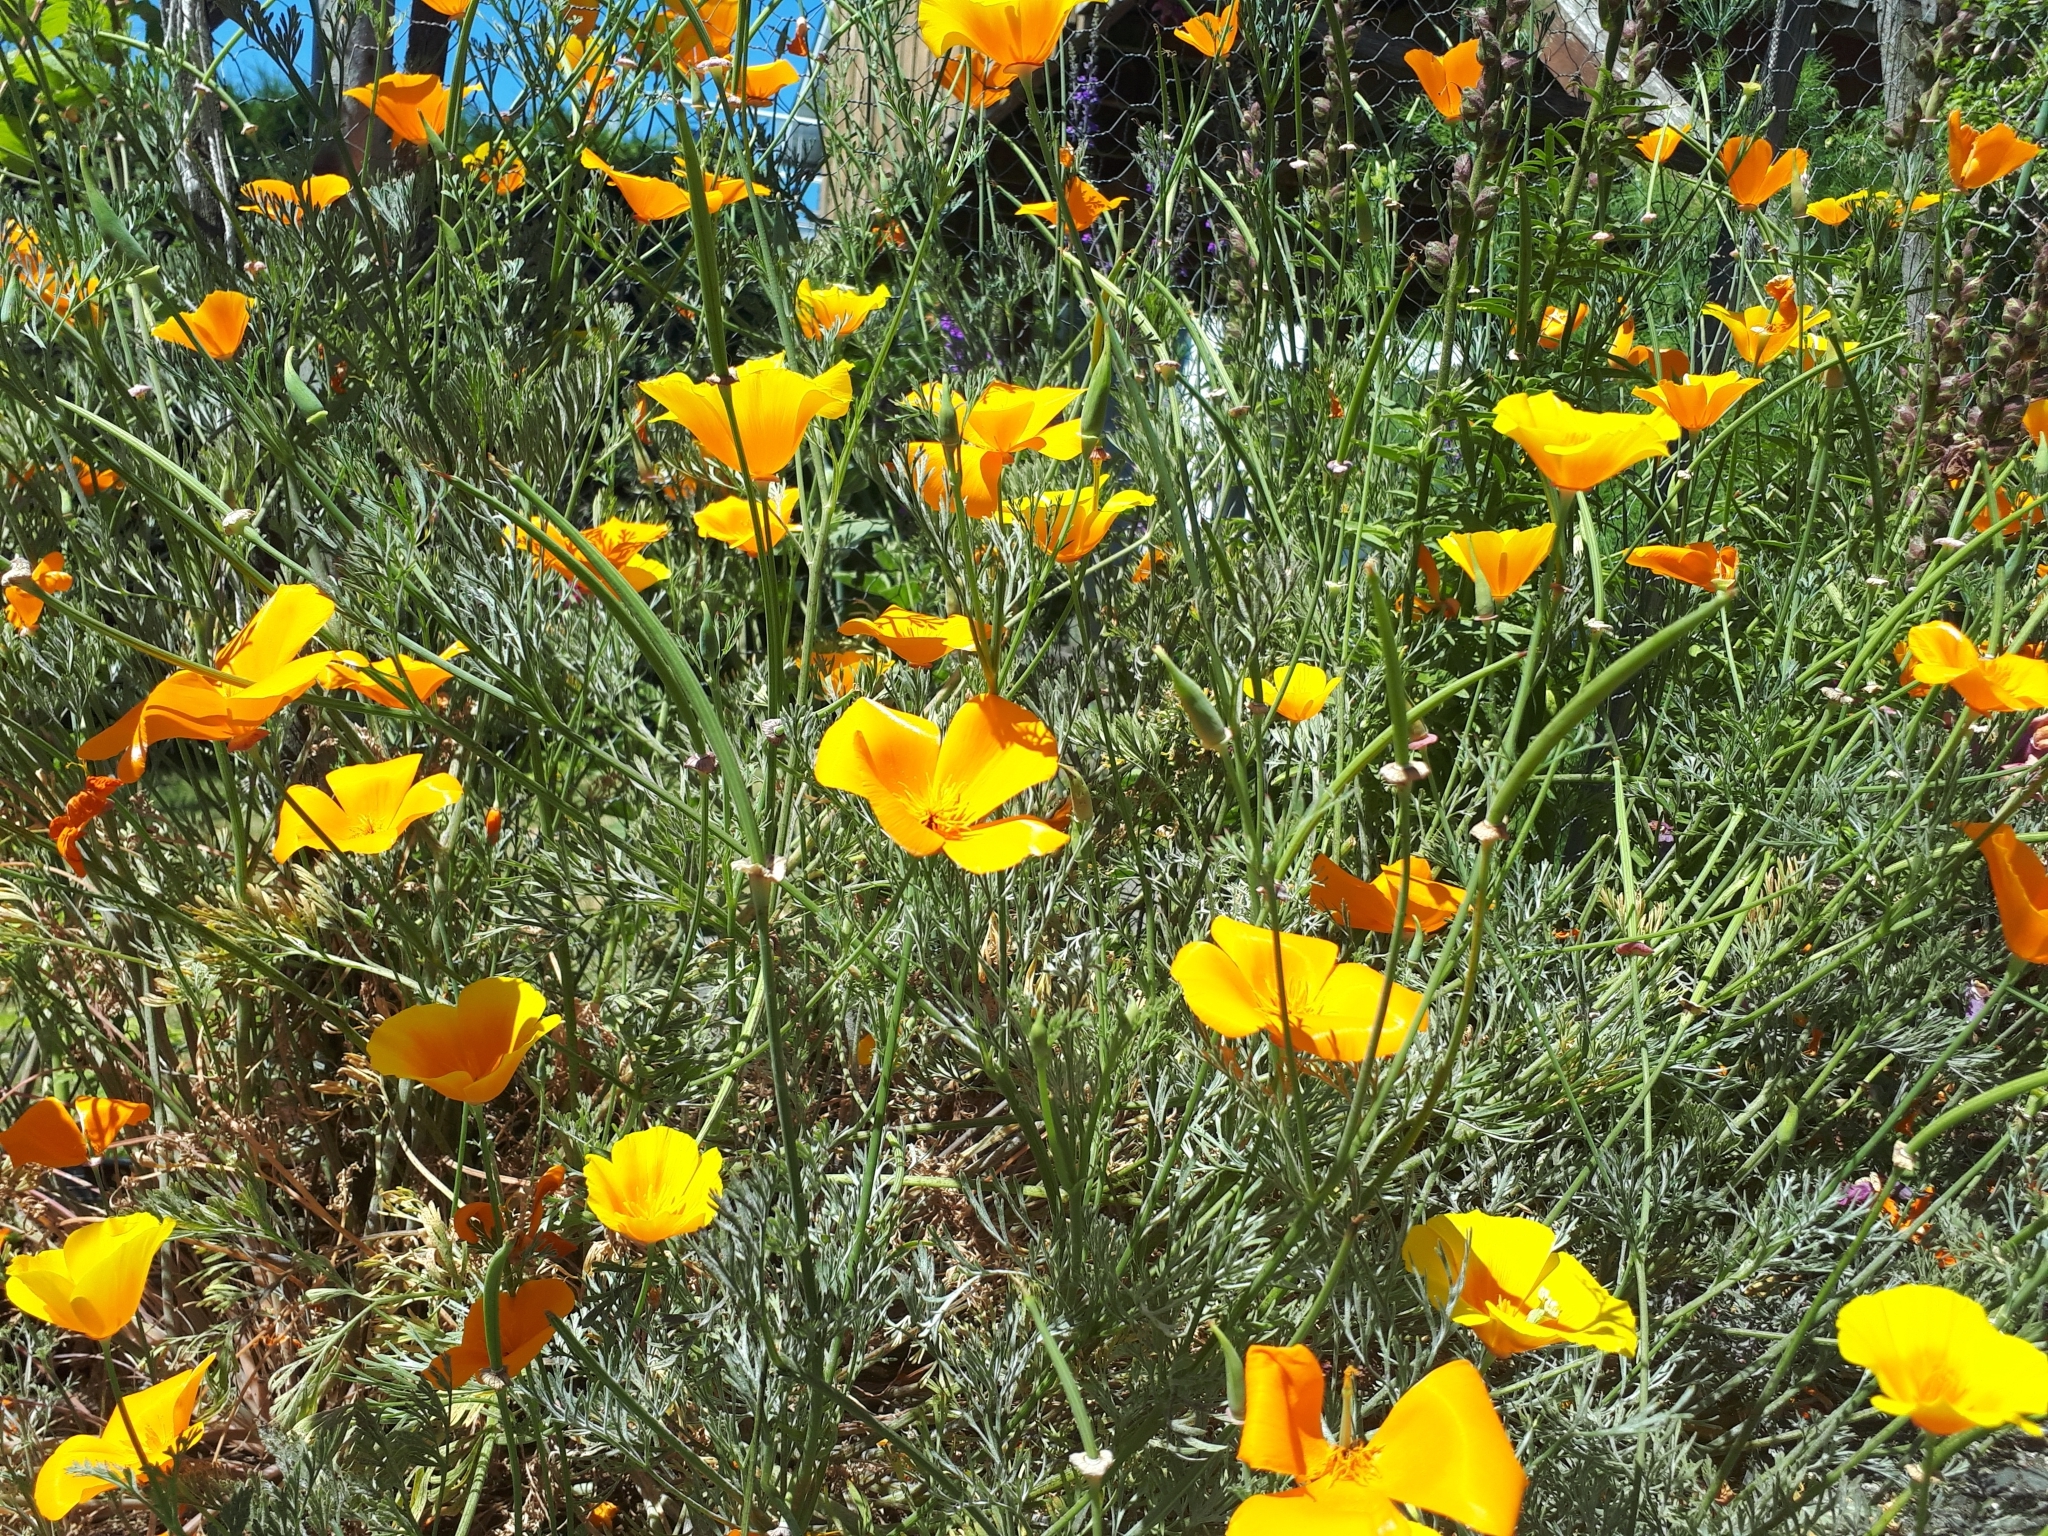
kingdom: Plantae
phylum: Tracheophyta
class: Magnoliopsida
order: Ranunculales
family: Papaveraceae
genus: Eschscholzia
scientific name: Eschscholzia californica
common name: California poppy
